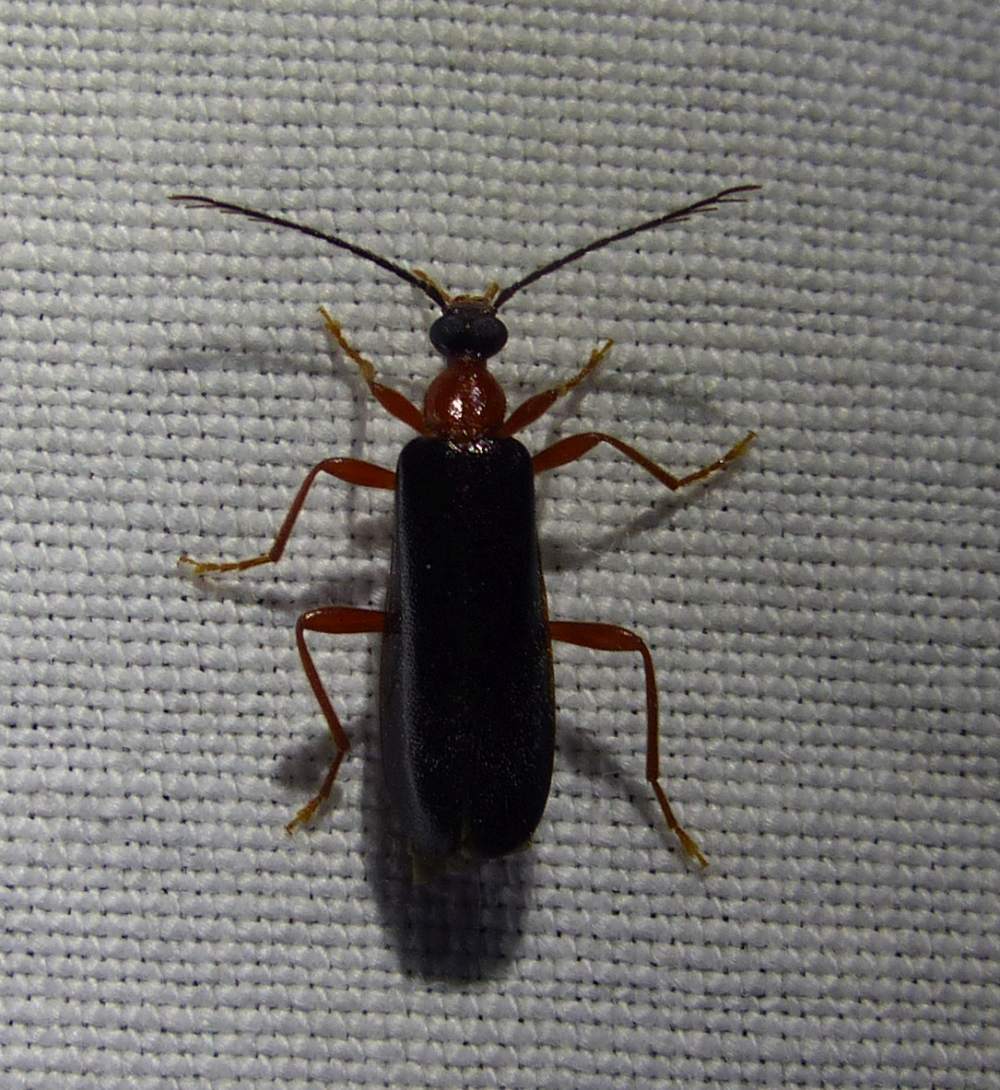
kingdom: Animalia
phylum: Arthropoda
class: Insecta
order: Coleoptera
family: Pyrochroidae
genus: Dendroides
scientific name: Dendroides canadensis
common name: Canada fire-colored beetle
